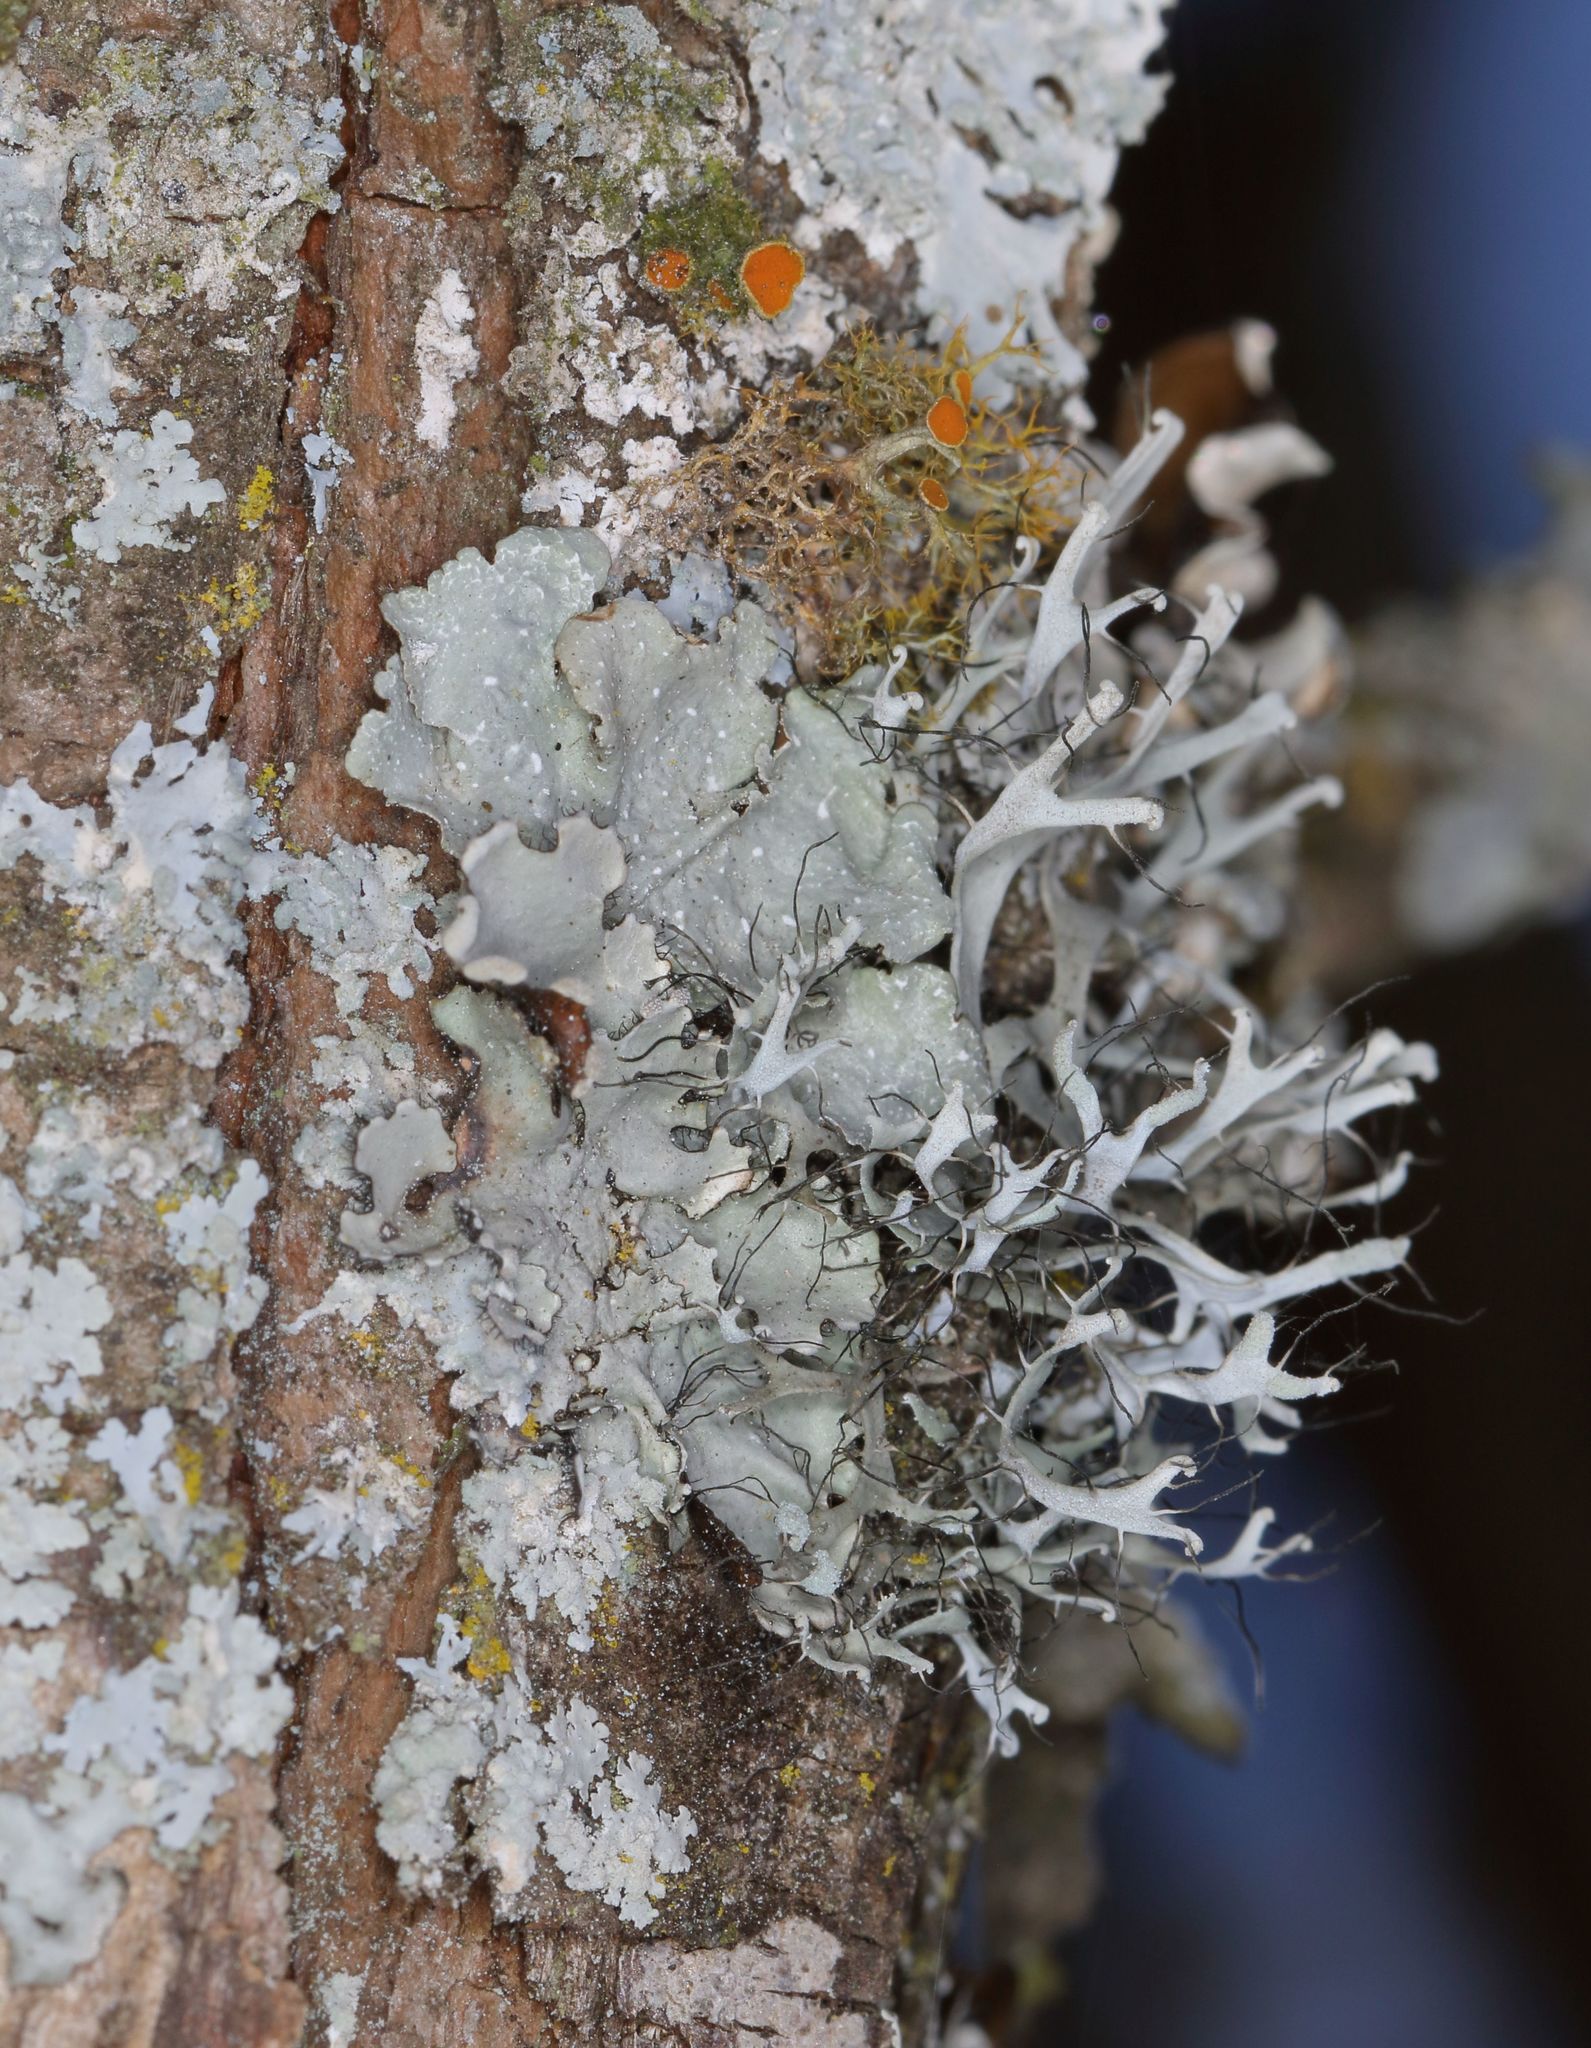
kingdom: Fungi
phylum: Ascomycota
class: Lecanoromycetes
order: Caliciales
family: Physciaceae
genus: Leucodermia
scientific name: Leucodermia leucomelos
